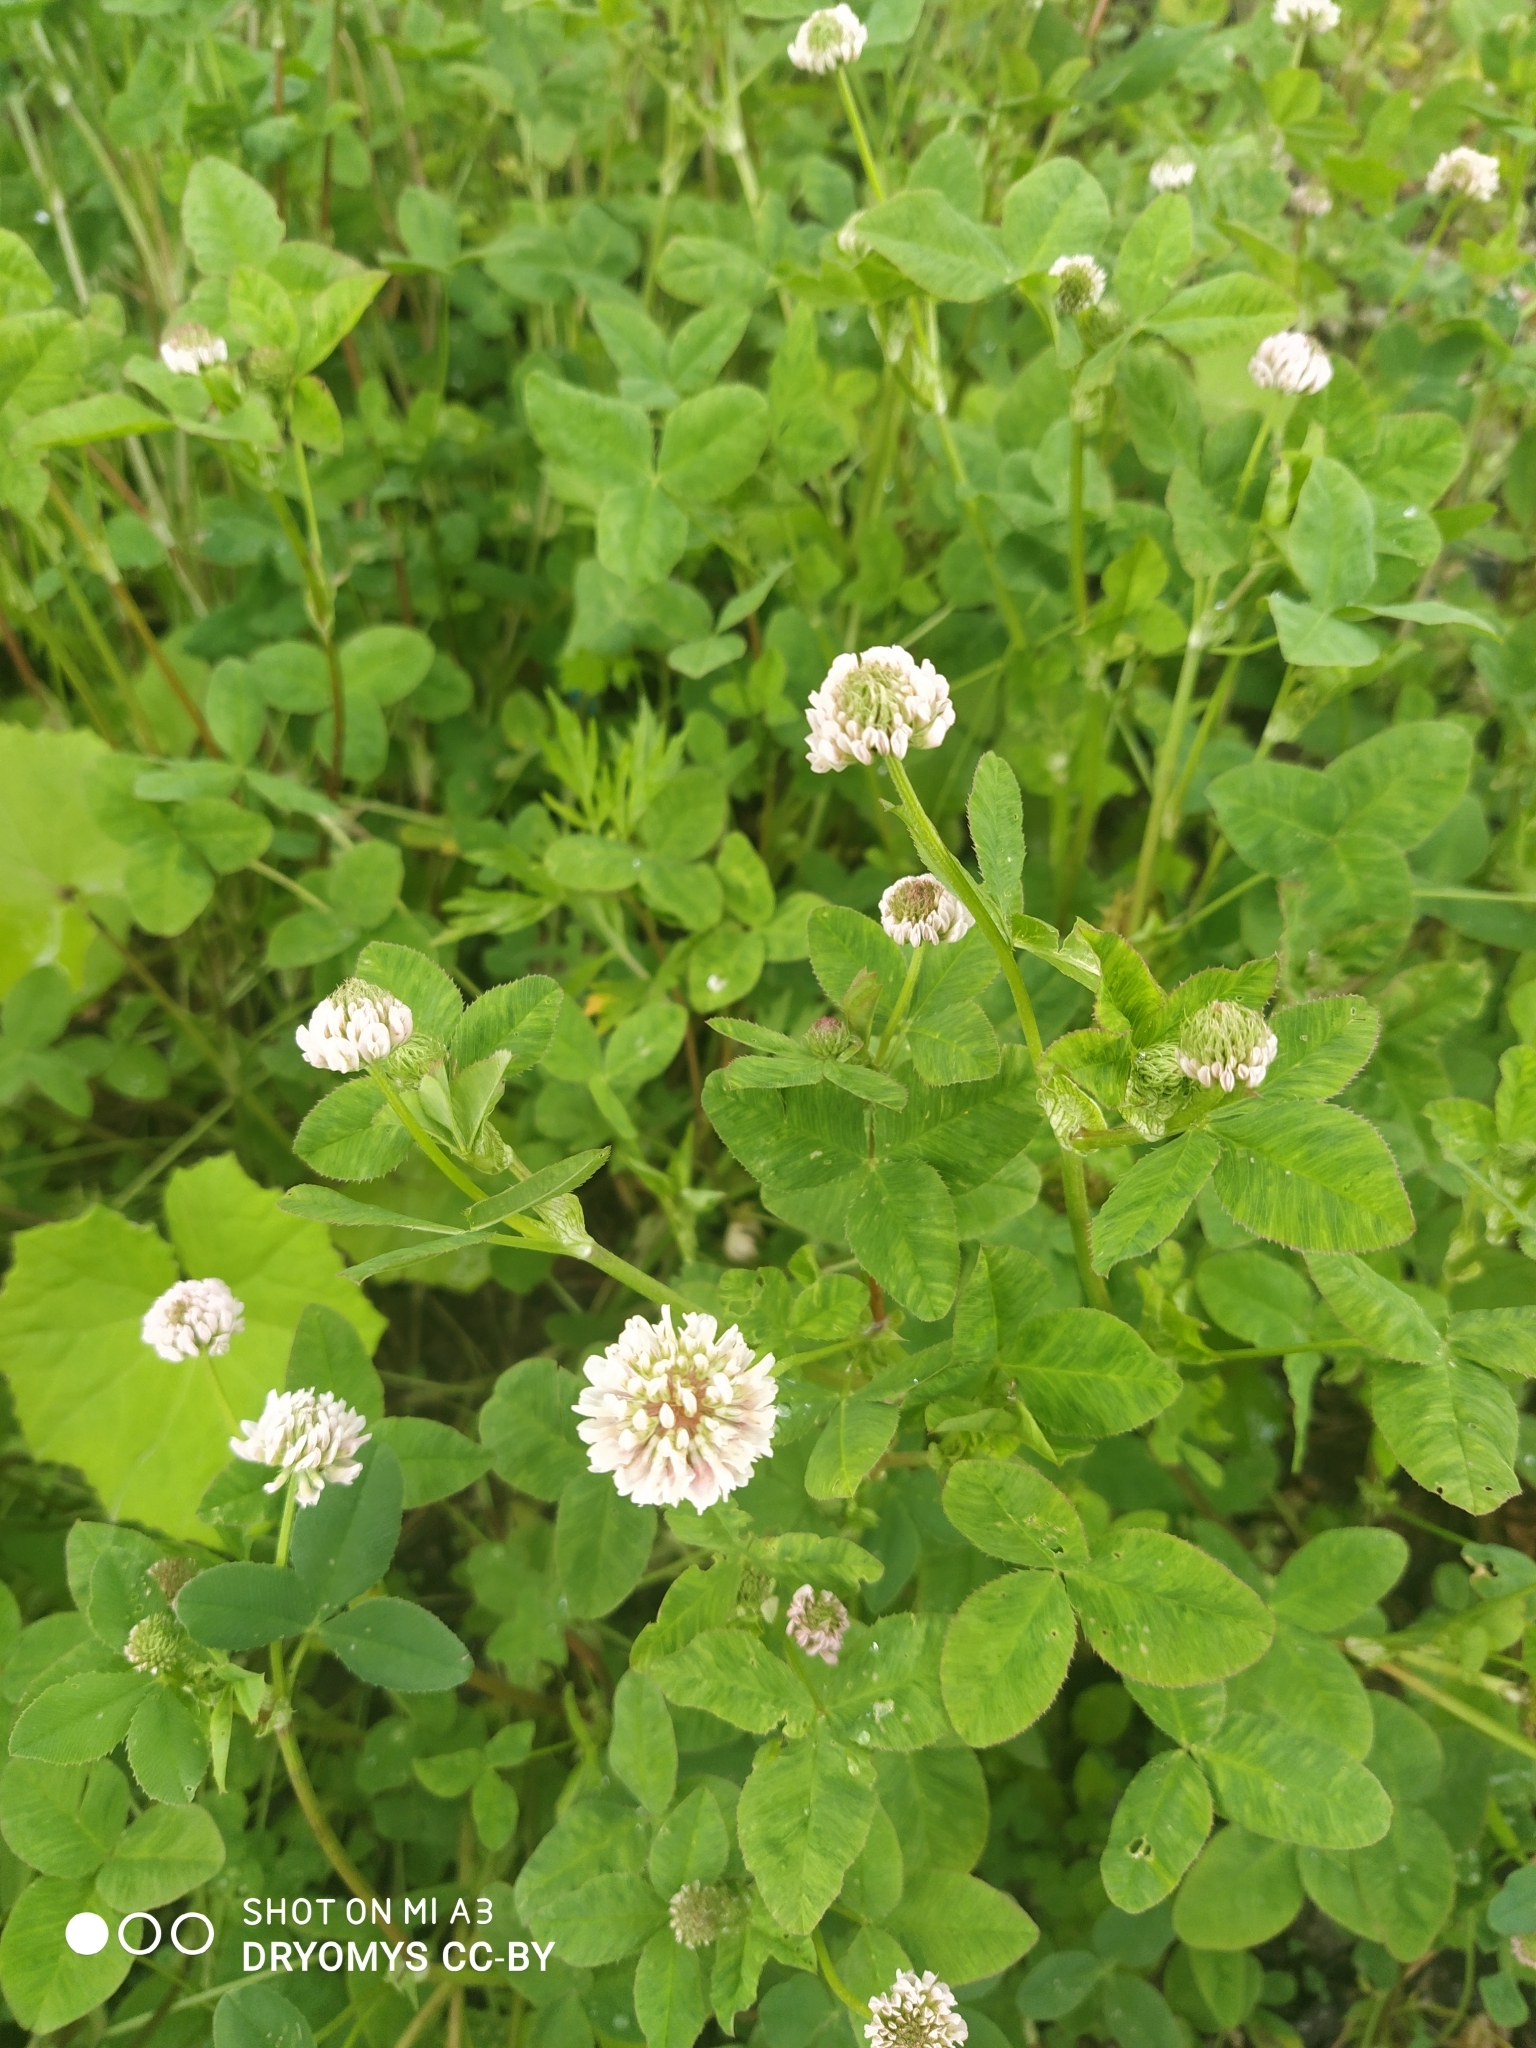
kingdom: Plantae
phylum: Tracheophyta
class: Magnoliopsida
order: Fabales
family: Fabaceae
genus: Trifolium
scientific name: Trifolium hybridum
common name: Alsike clover
